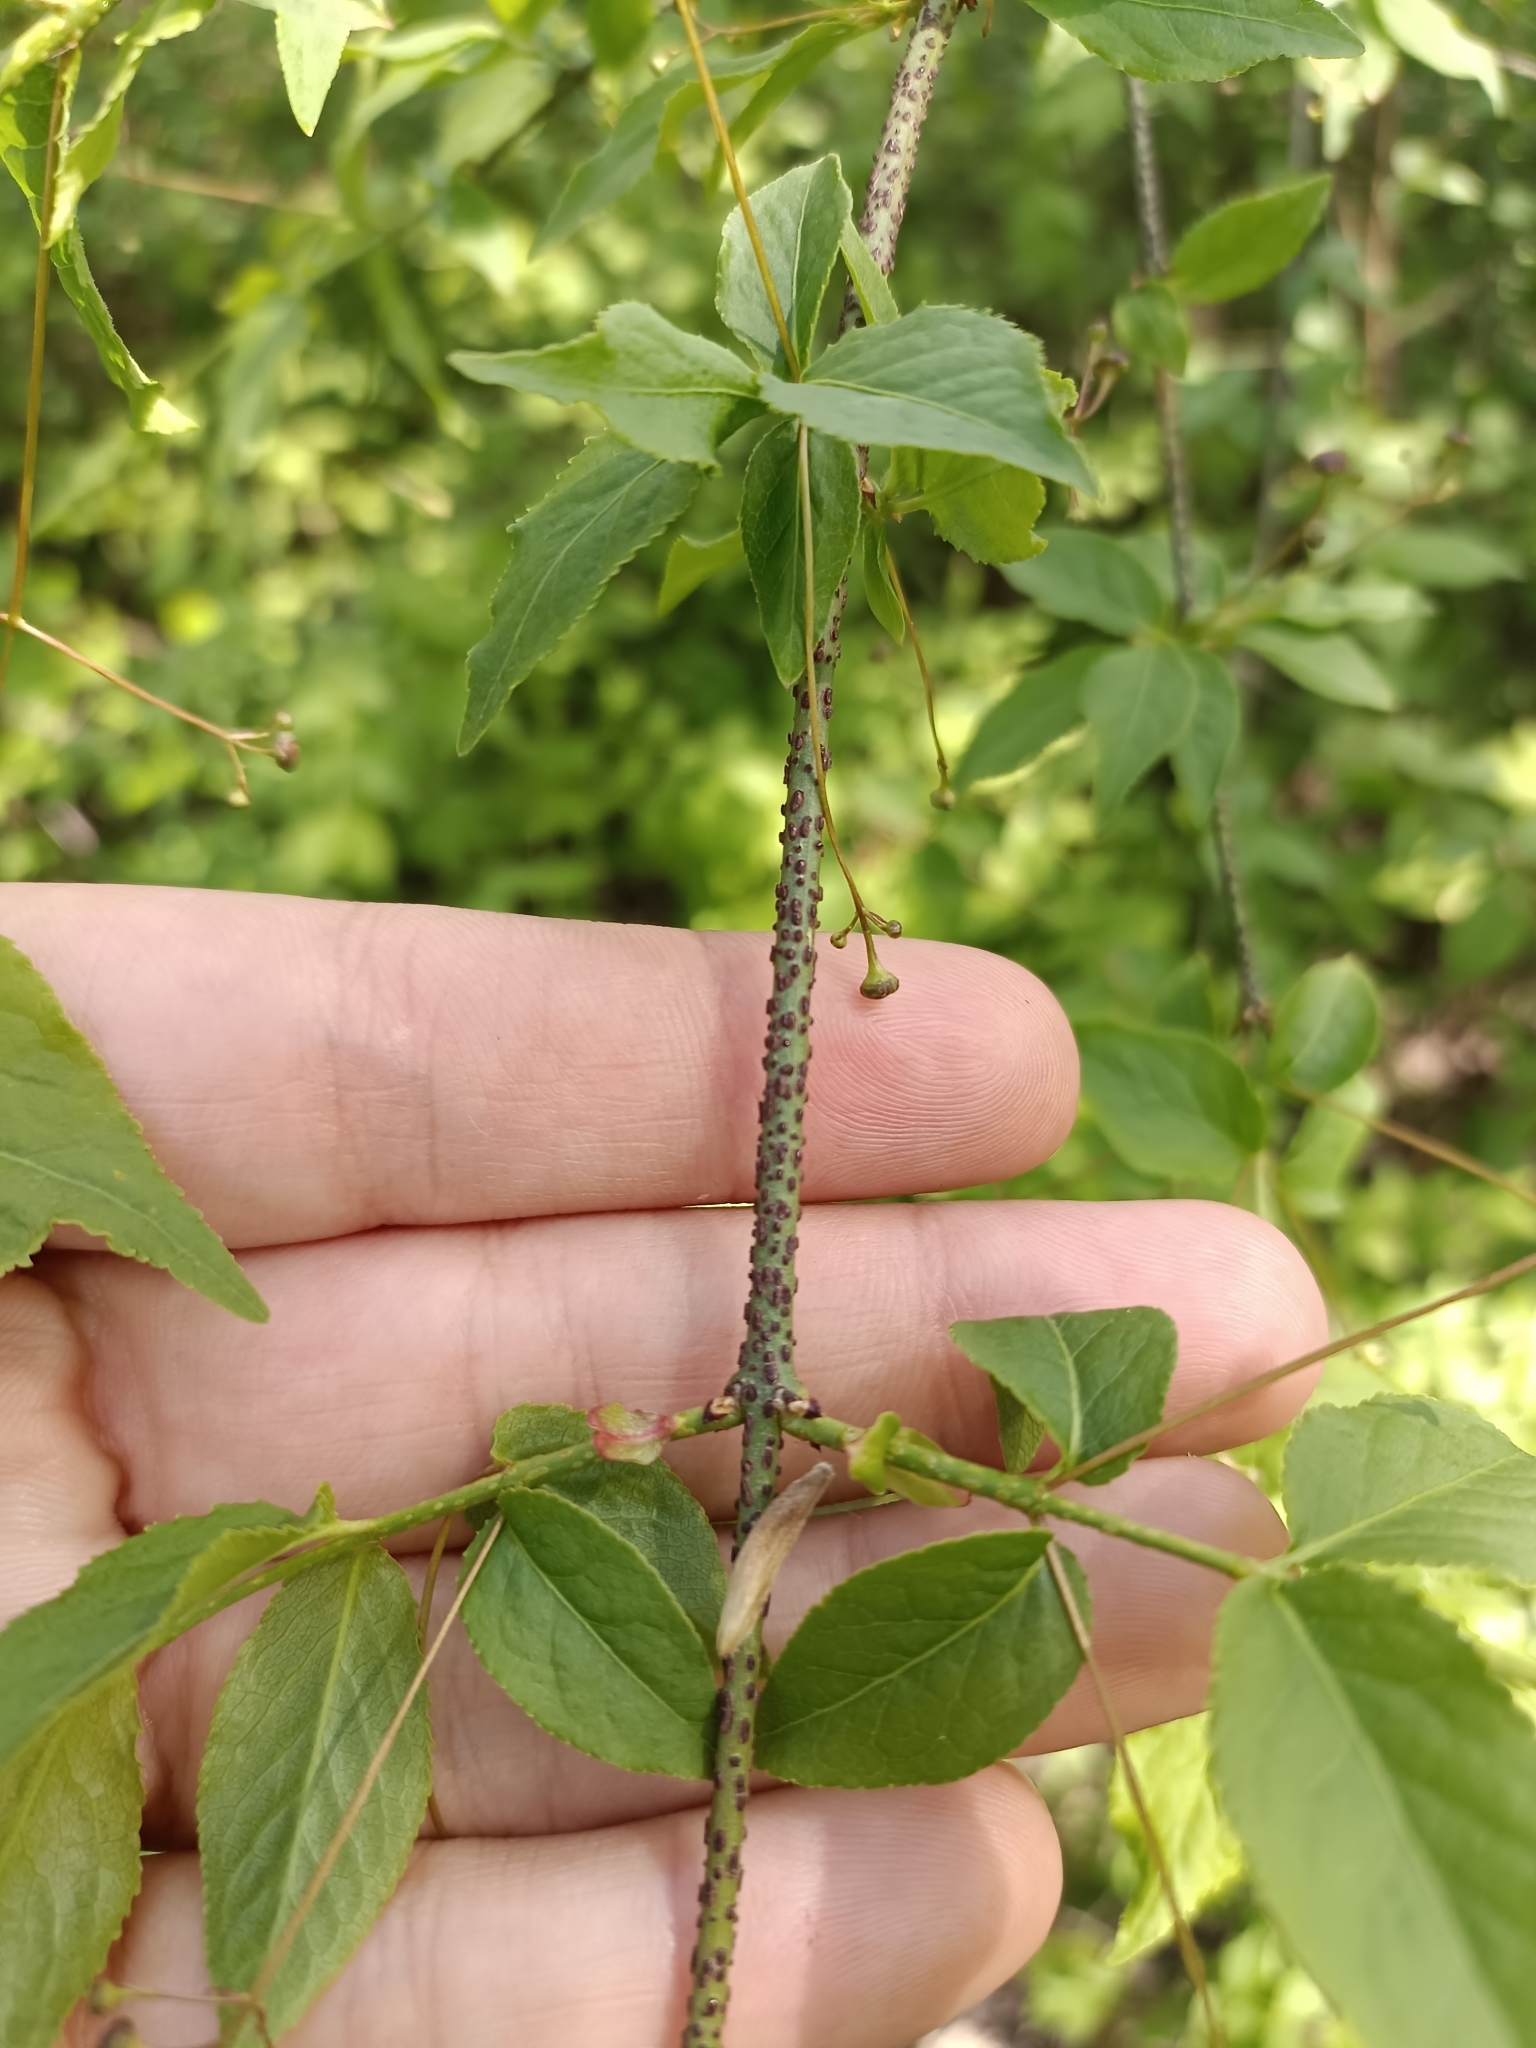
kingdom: Plantae
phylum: Tracheophyta
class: Magnoliopsida
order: Celastrales
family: Celastraceae
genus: Euonymus
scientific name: Euonymus verrucosus
